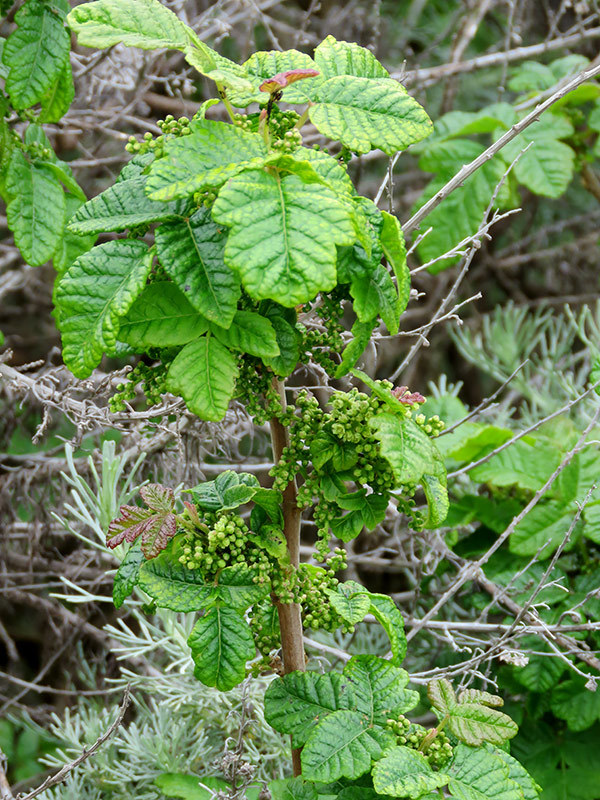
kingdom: Plantae
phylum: Tracheophyta
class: Magnoliopsida
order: Sapindales
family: Anacardiaceae
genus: Toxicodendron
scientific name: Toxicodendron diversilobum
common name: Pacific poison-oak
